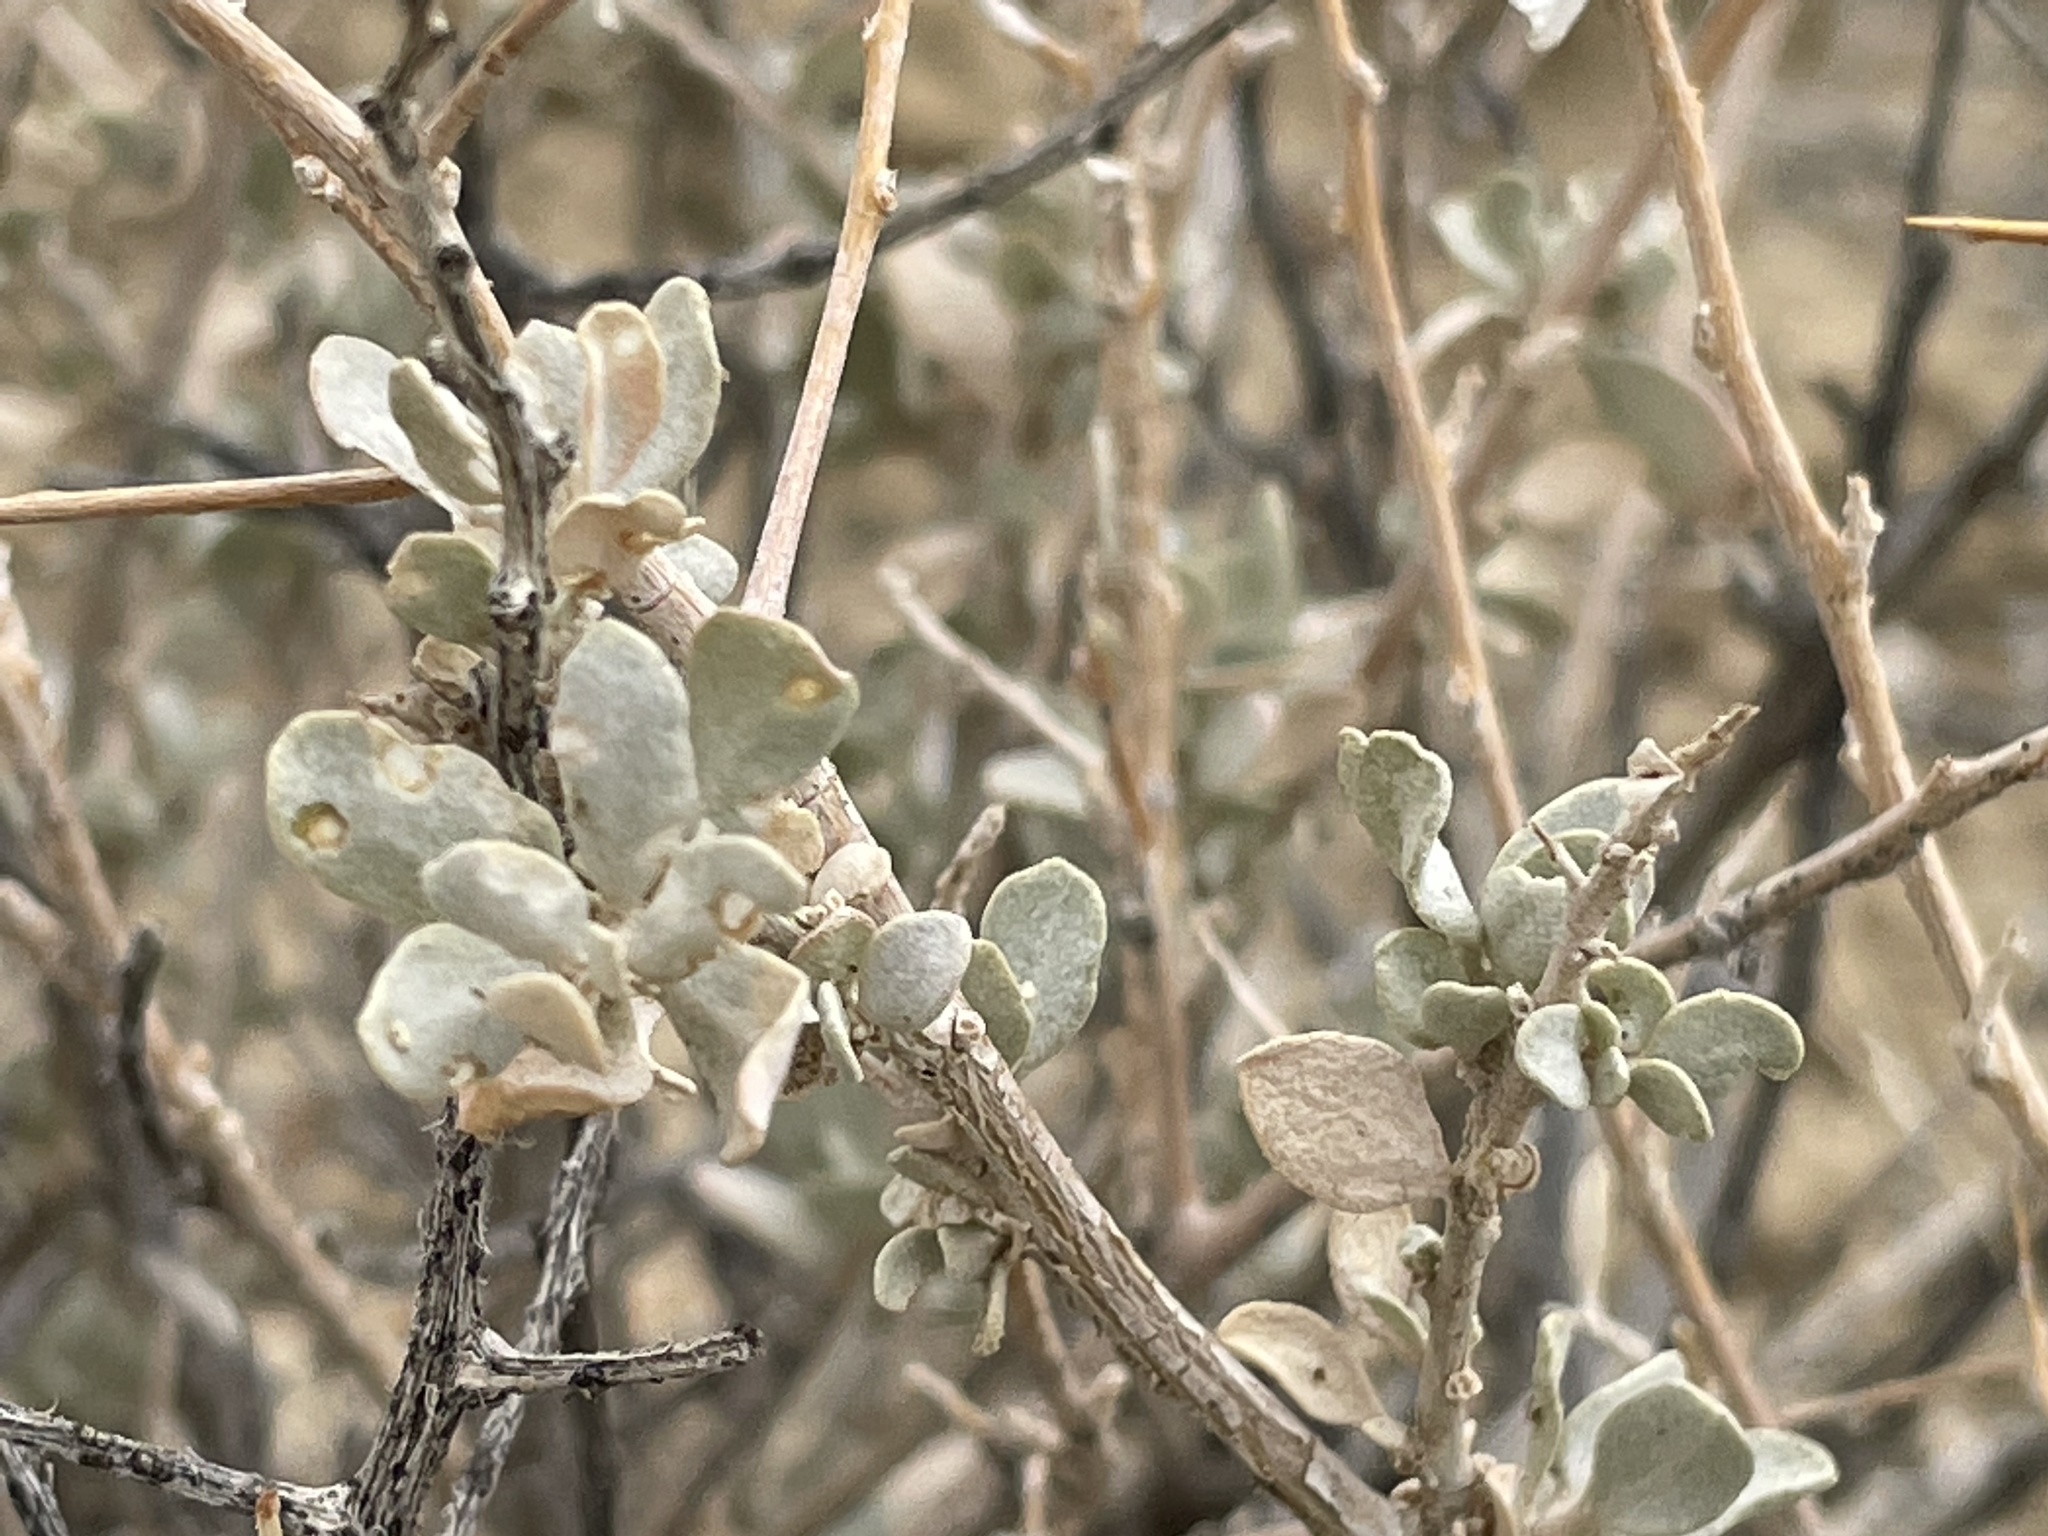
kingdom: Plantae
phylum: Tracheophyta
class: Magnoliopsida
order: Caryophyllales
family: Amaranthaceae
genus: Atriplex
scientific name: Atriplex confertifolia
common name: Shadscale
